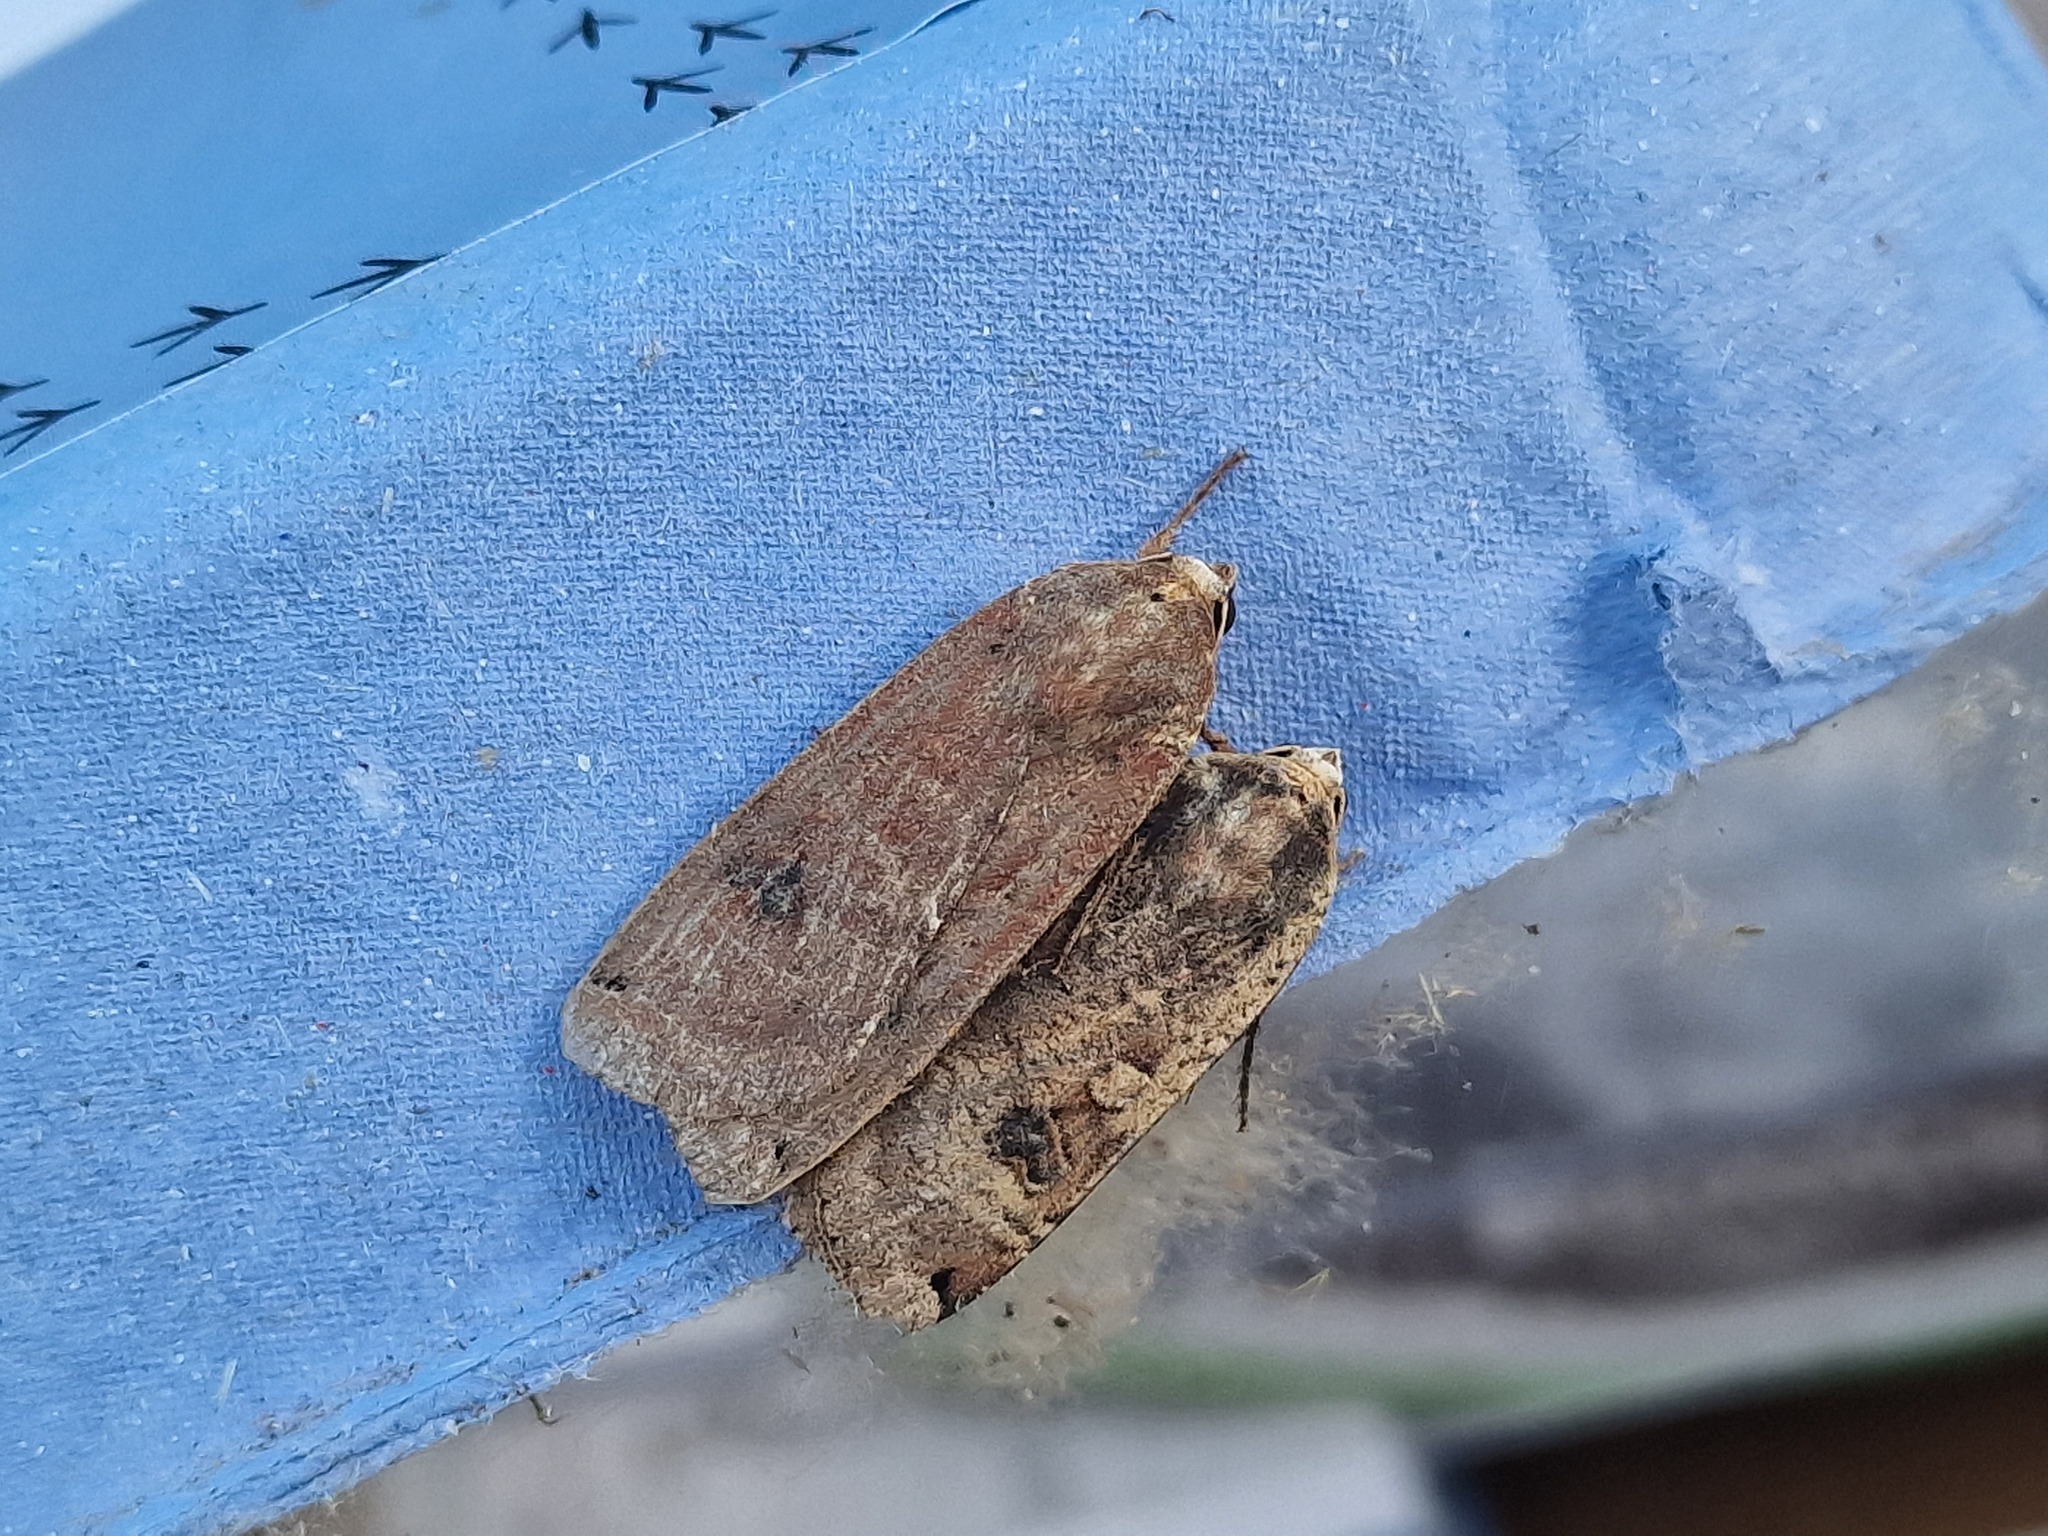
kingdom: Animalia
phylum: Arthropoda
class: Insecta
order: Lepidoptera
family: Noctuidae
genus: Noctua
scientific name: Noctua pronuba
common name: Large yellow underwing
